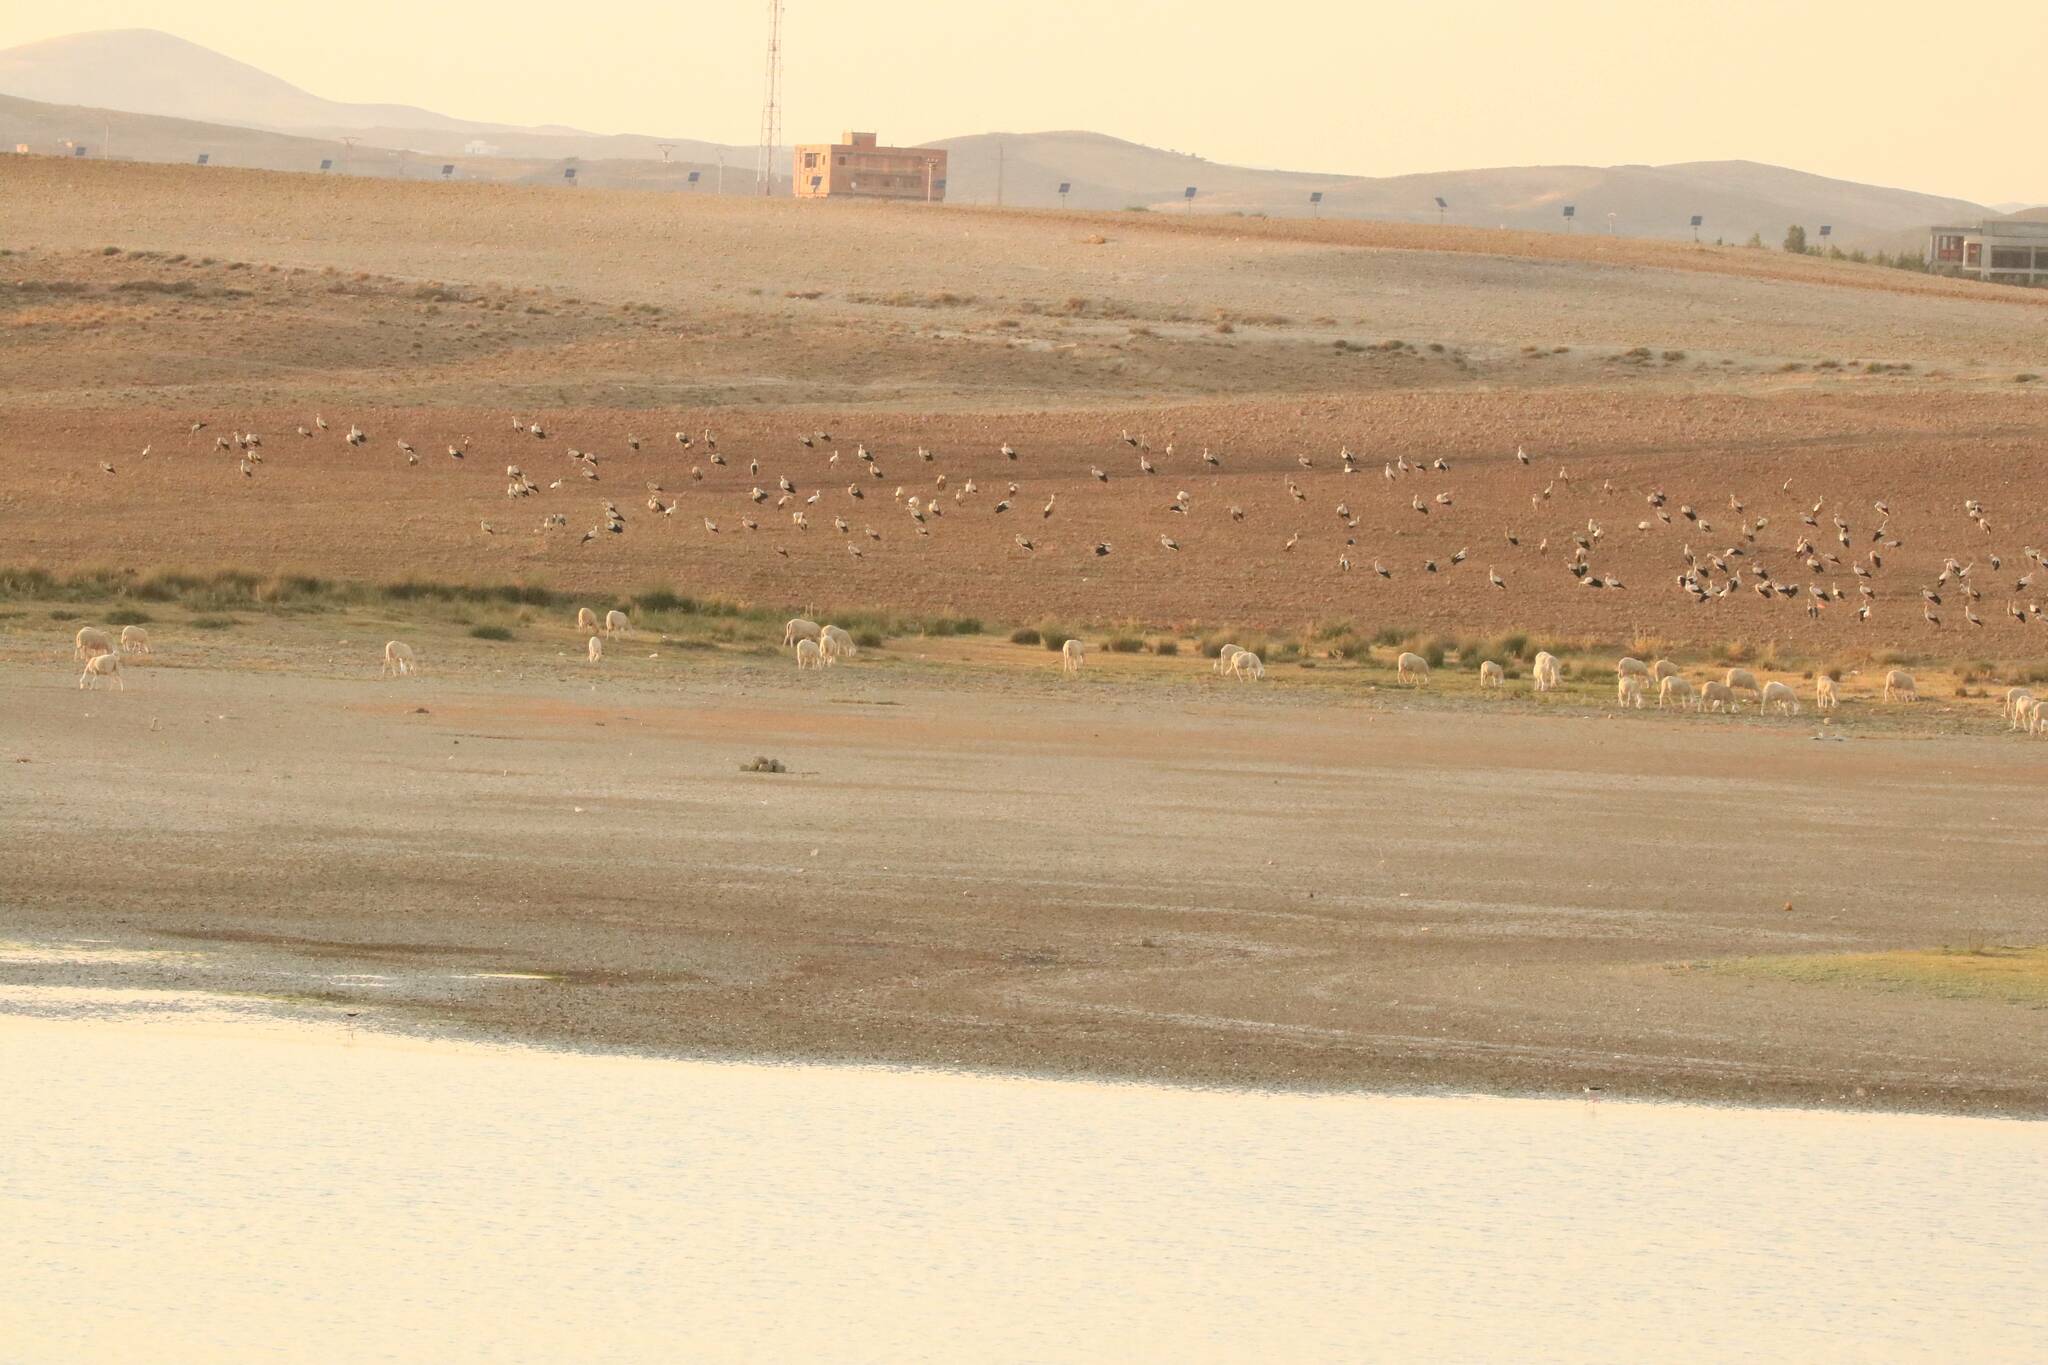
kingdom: Animalia
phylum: Chordata
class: Aves
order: Ciconiiformes
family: Ciconiidae
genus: Ciconia
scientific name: Ciconia ciconia
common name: White stork
